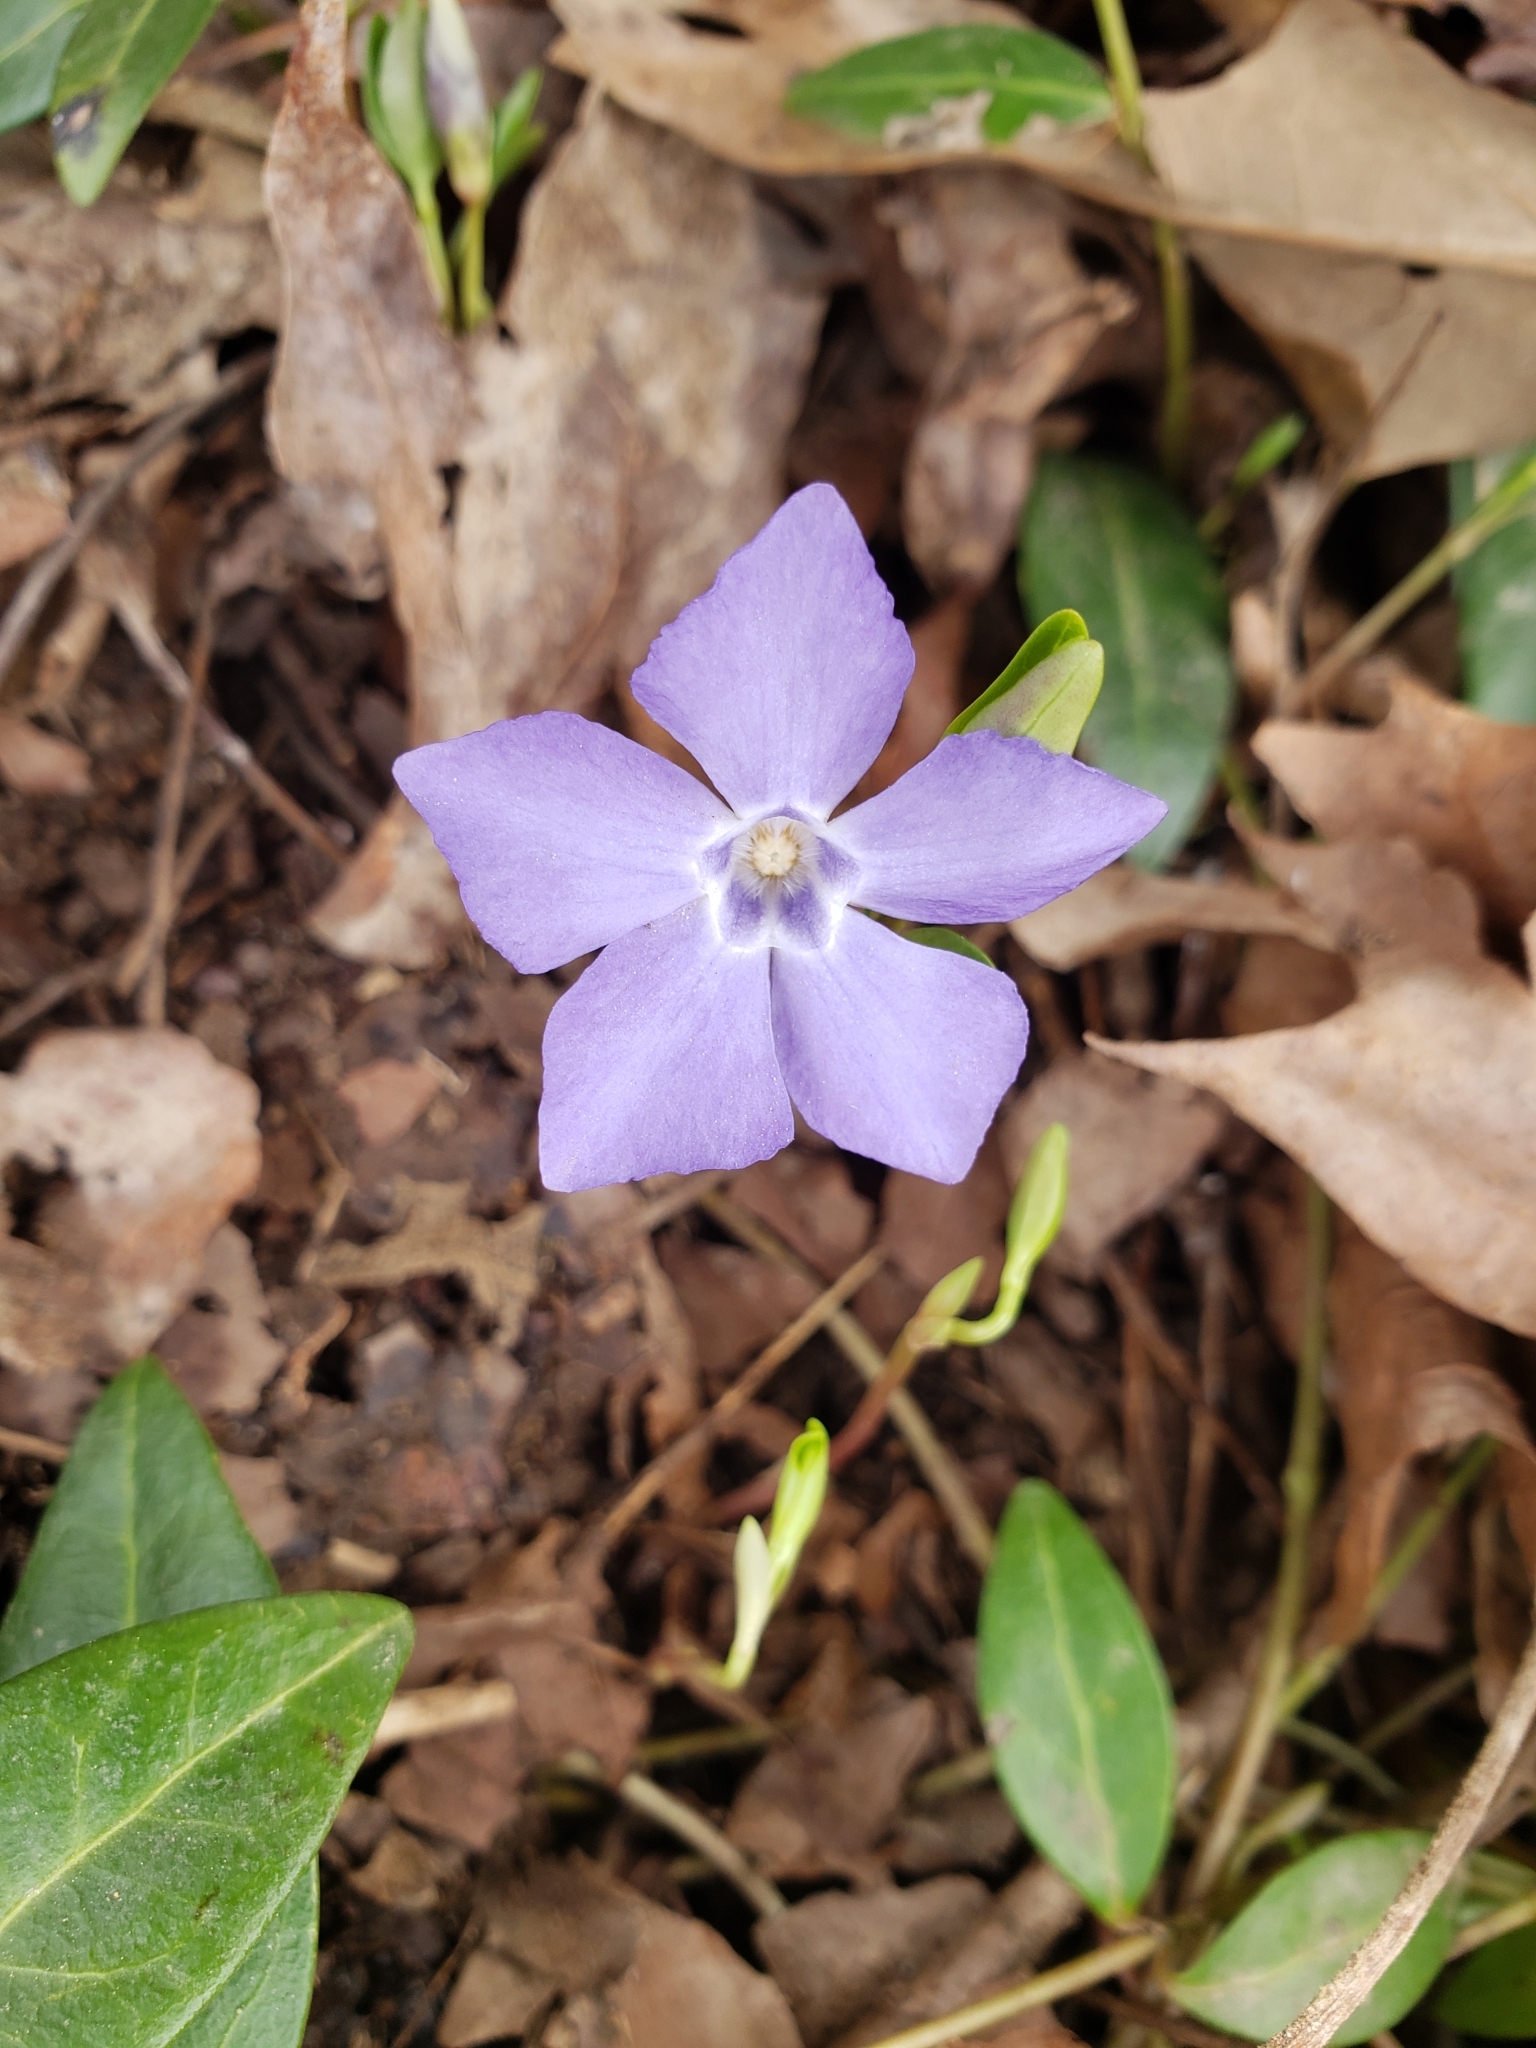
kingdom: Plantae
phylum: Tracheophyta
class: Magnoliopsida
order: Gentianales
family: Apocynaceae
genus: Vinca
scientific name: Vinca minor
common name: Lesser periwinkle
